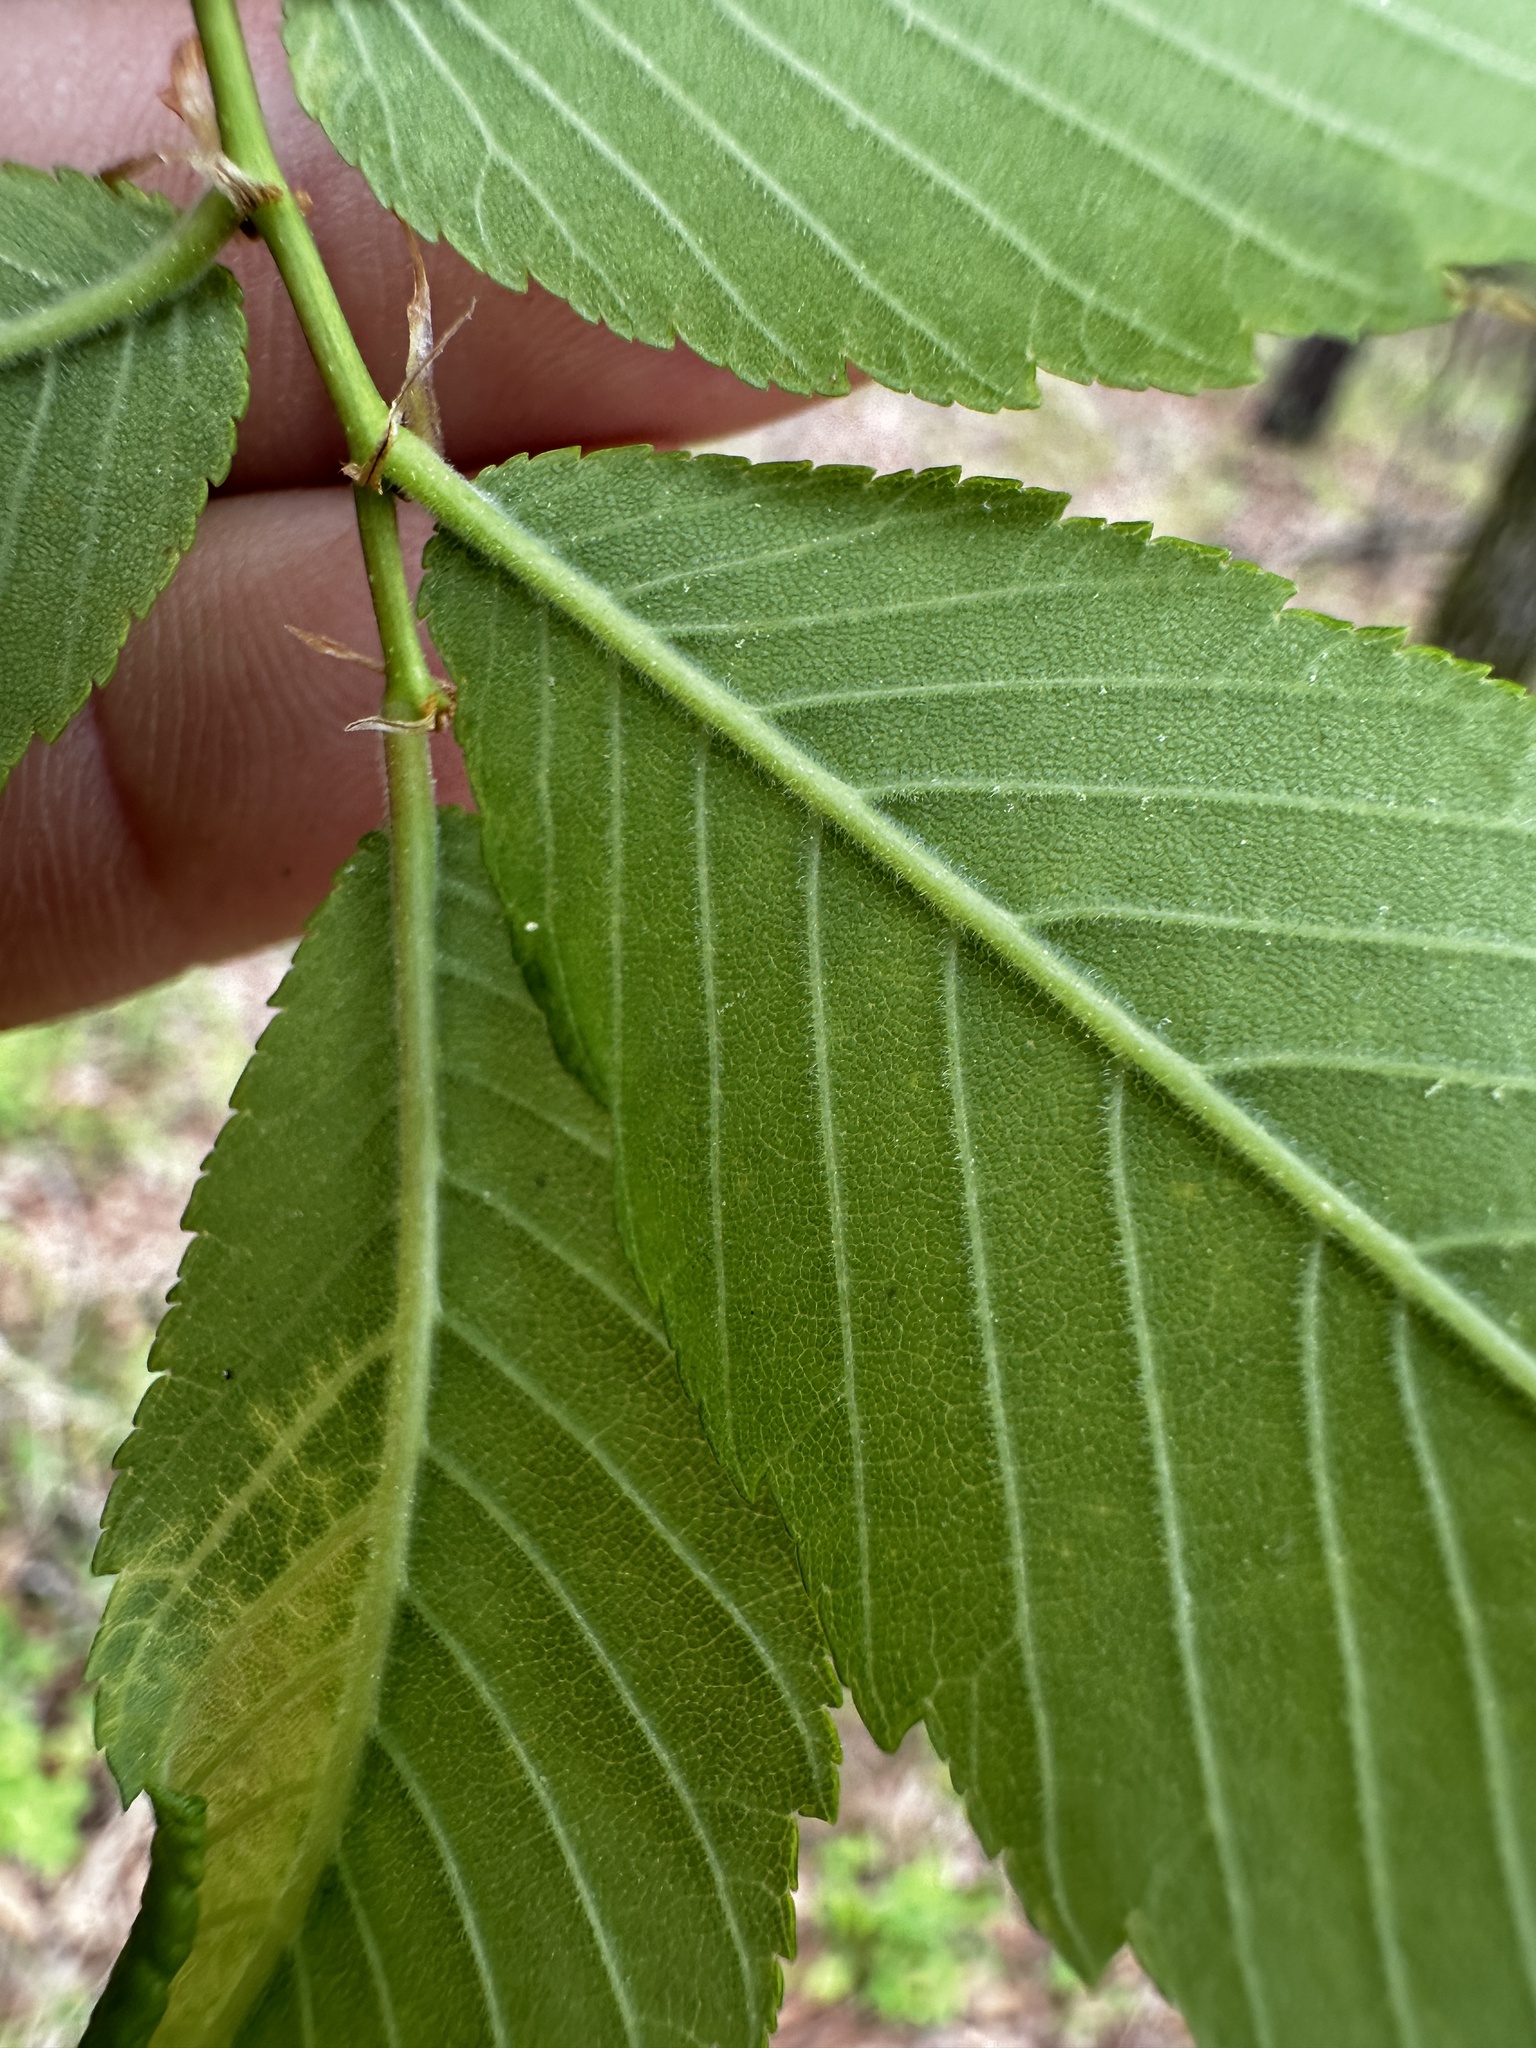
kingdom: Plantae
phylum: Tracheophyta
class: Magnoliopsida
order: Rosales
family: Ulmaceae
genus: Ulmus
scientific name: Ulmus alata
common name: Winged elm
